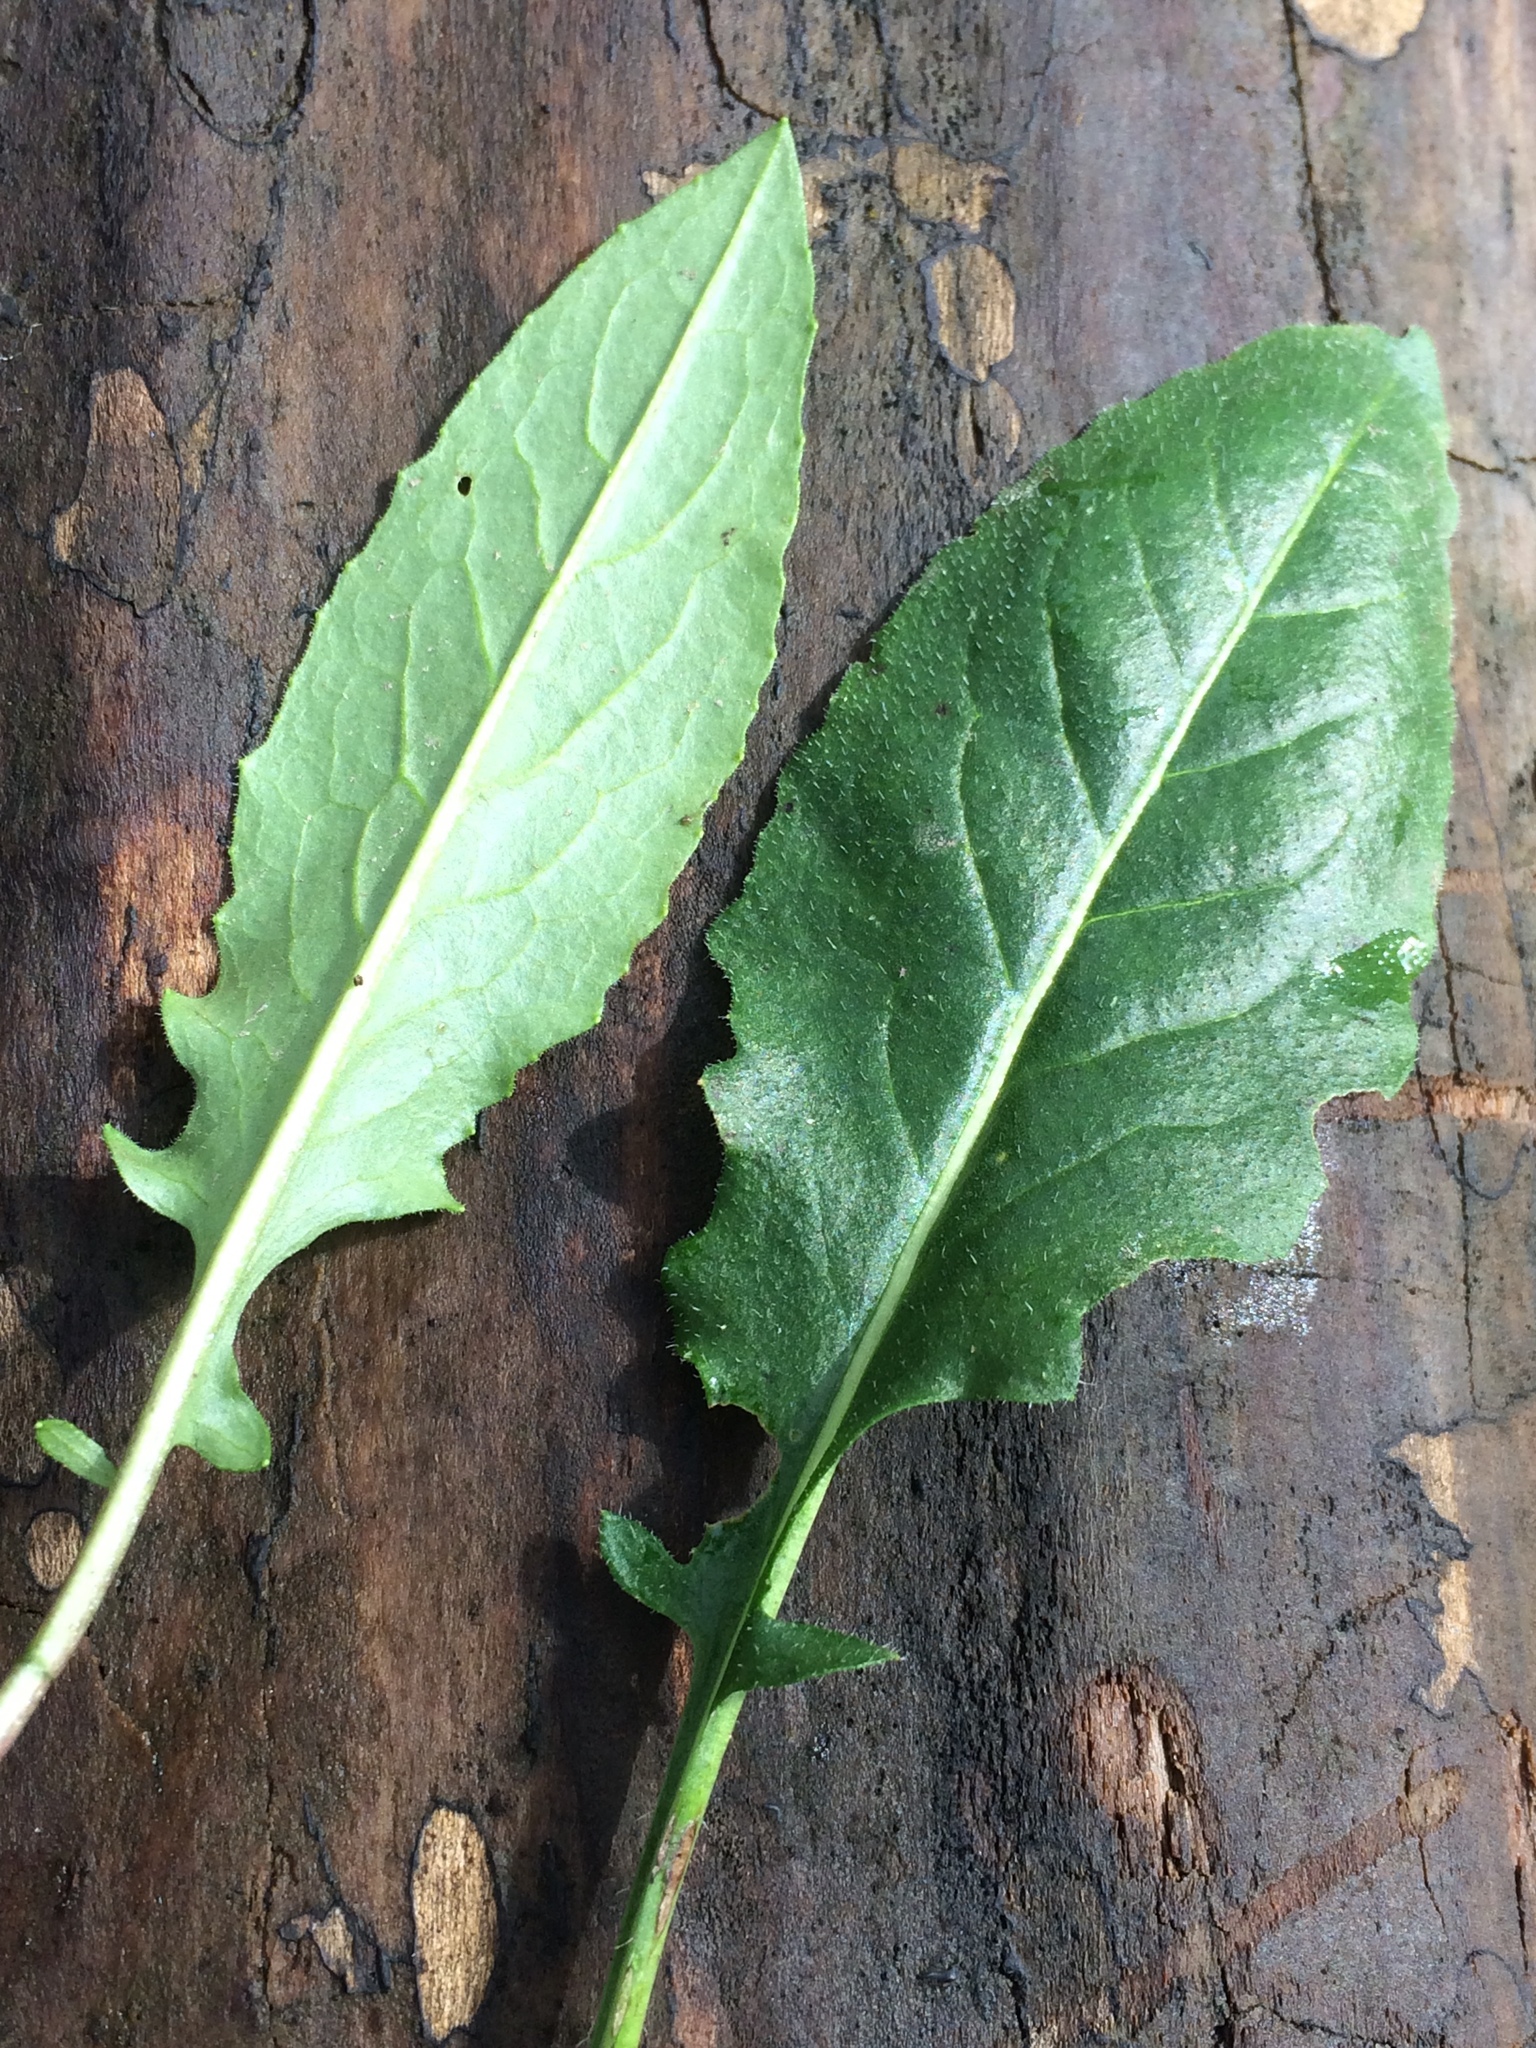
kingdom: Plantae
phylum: Tracheophyta
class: Magnoliopsida
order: Brassicales
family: Brassicaceae
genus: Hesperis
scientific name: Hesperis matronalis
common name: Dame's-violet
